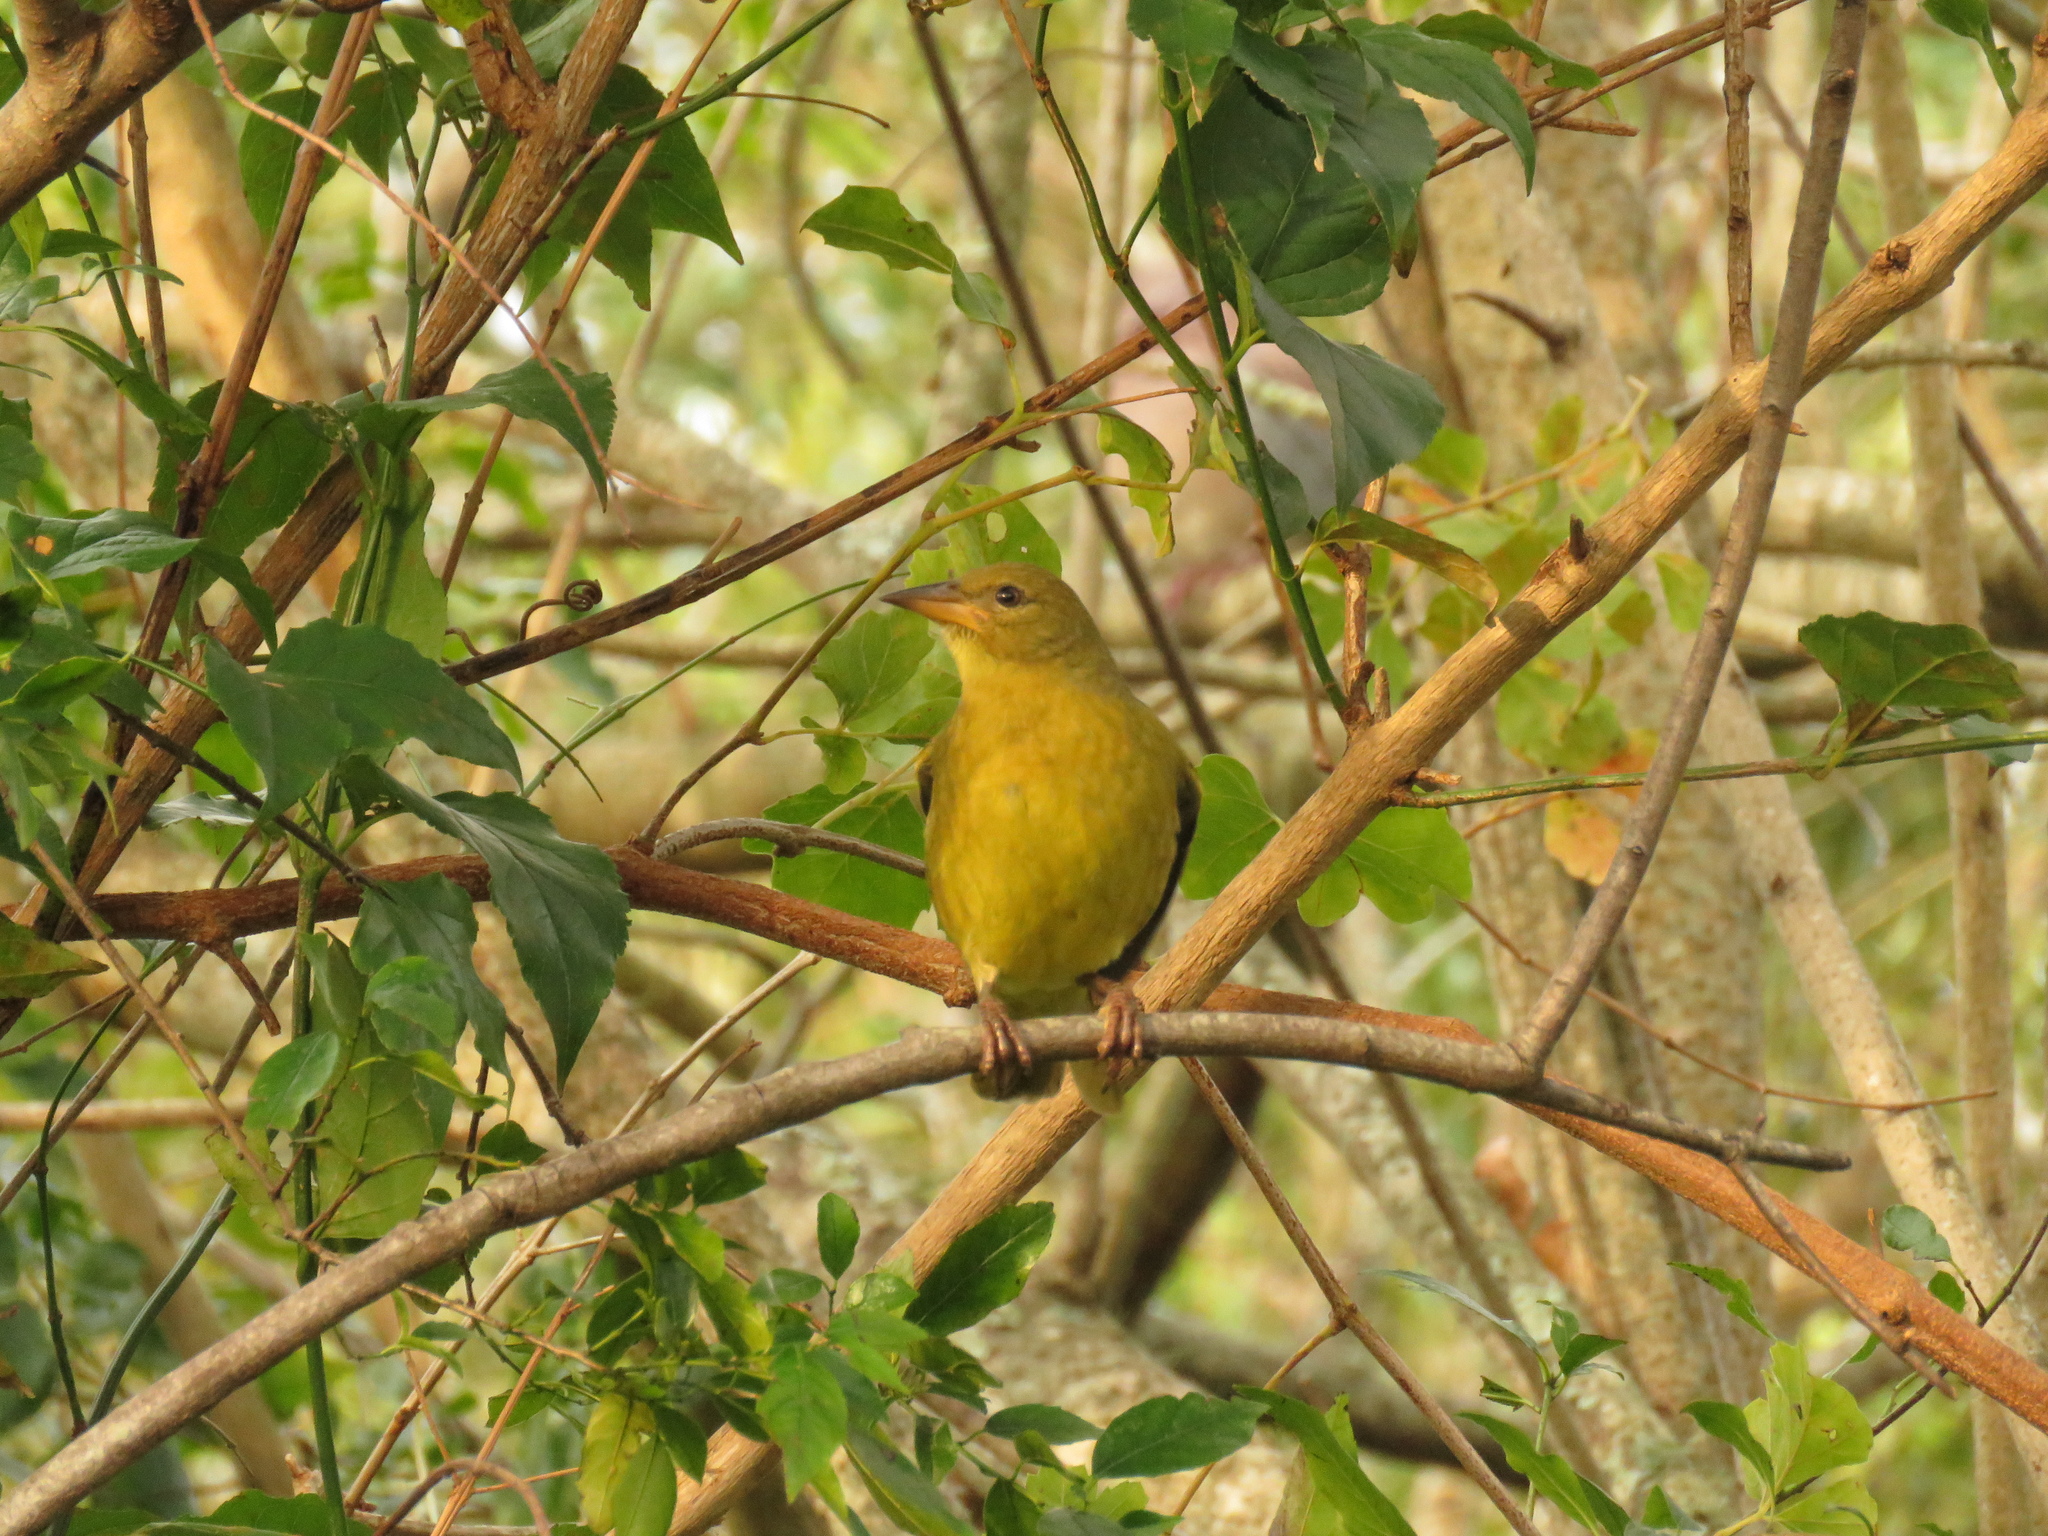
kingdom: Animalia
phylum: Chordata
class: Aves
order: Passeriformes
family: Ploceidae
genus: Ploceus
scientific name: Ploceus capensis
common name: Cape weaver
